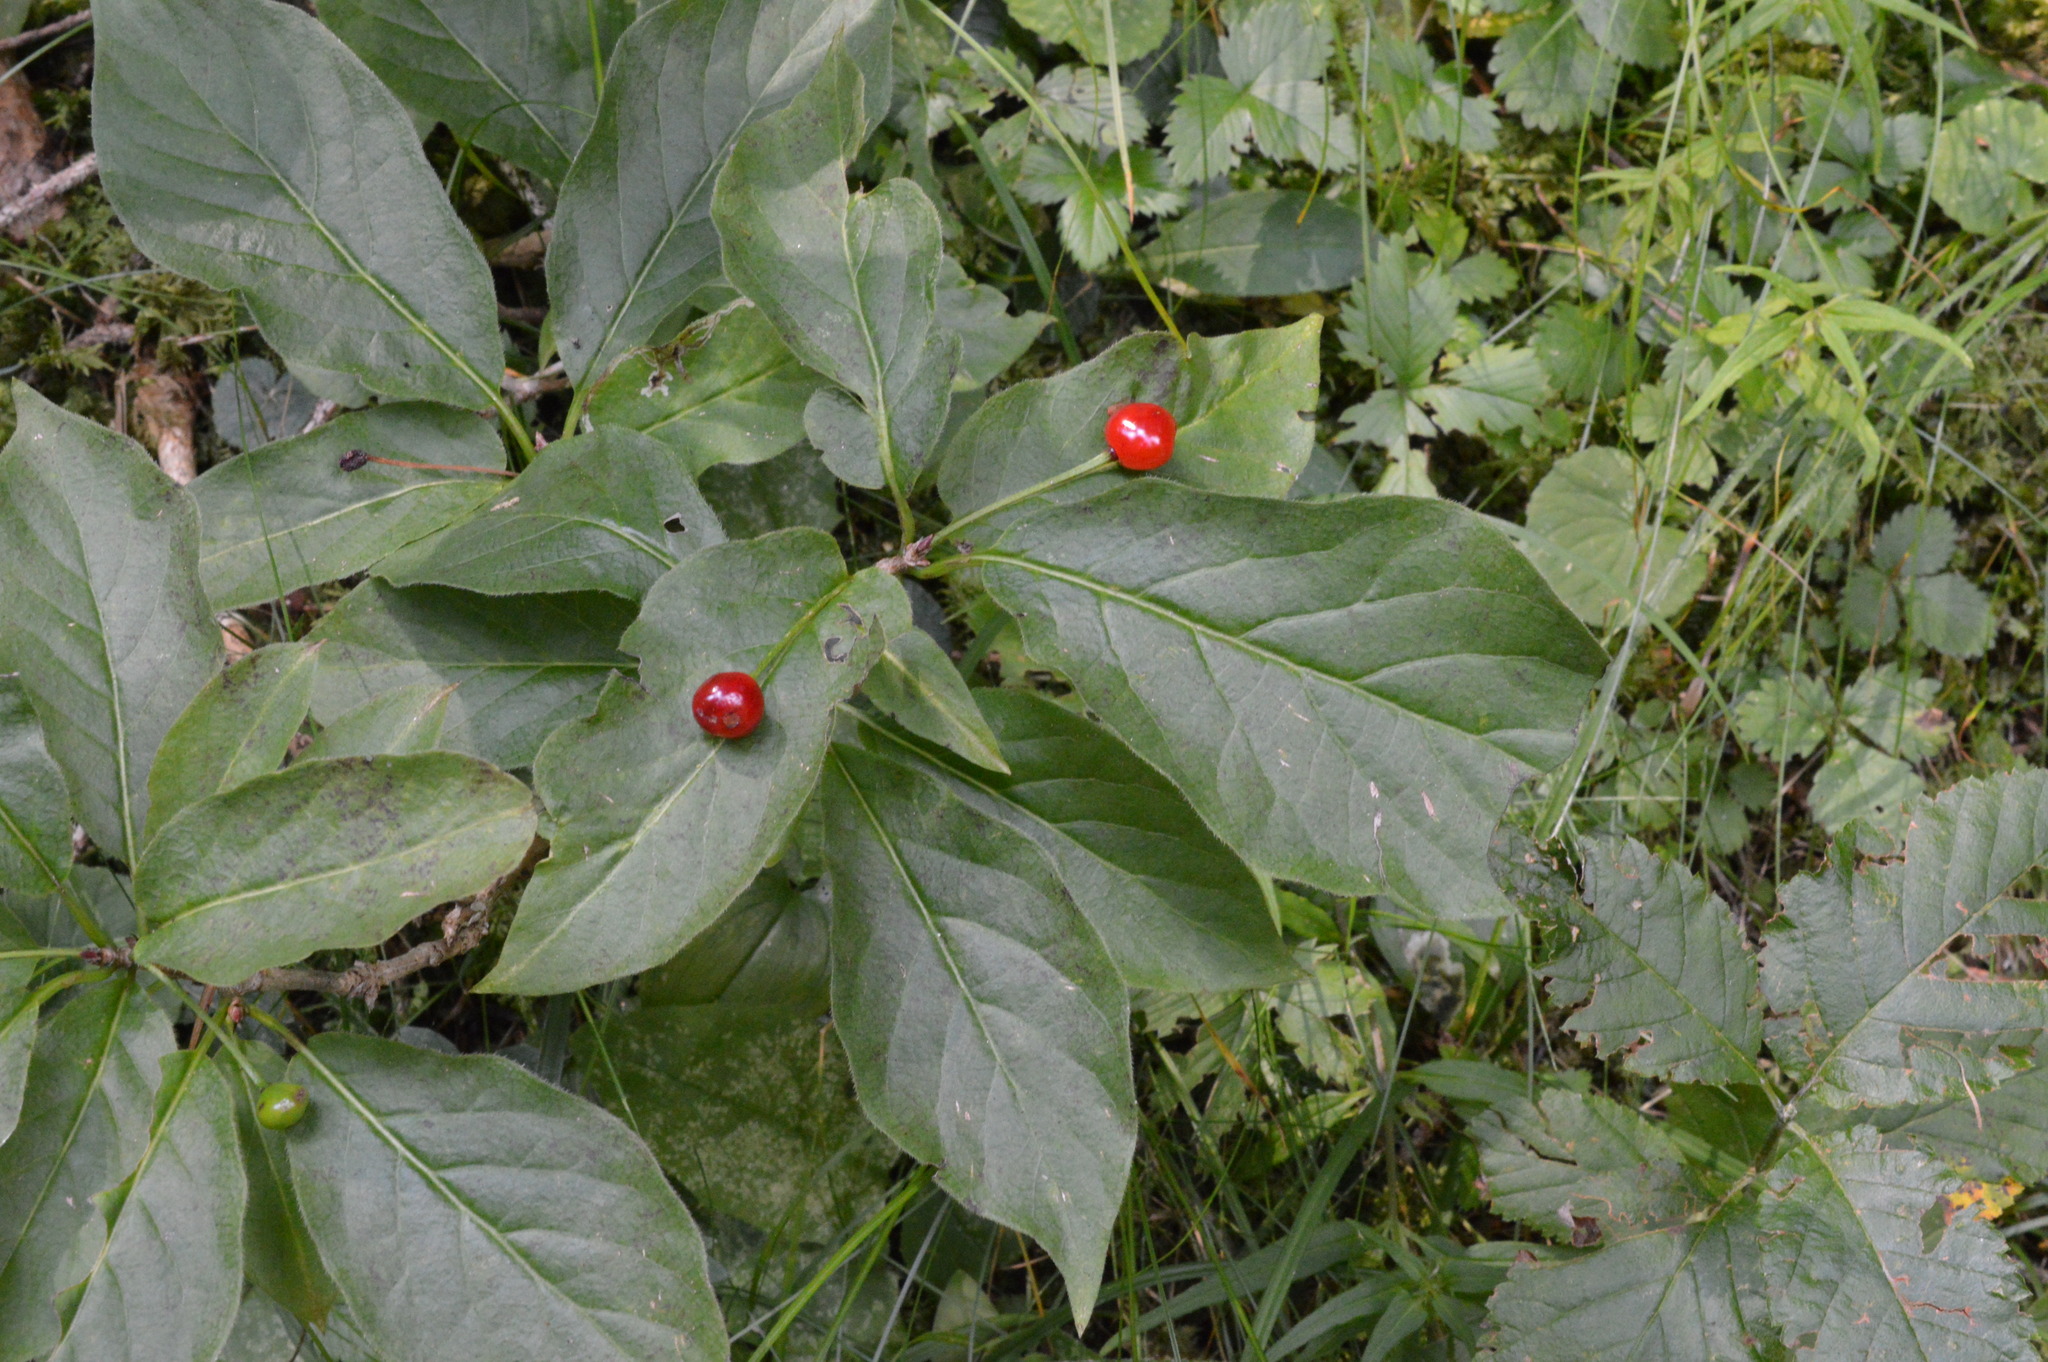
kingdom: Plantae
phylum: Tracheophyta
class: Magnoliopsida
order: Dipsacales
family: Caprifoliaceae
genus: Lonicera
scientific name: Lonicera alpigena
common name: Alpine honeysuckle
